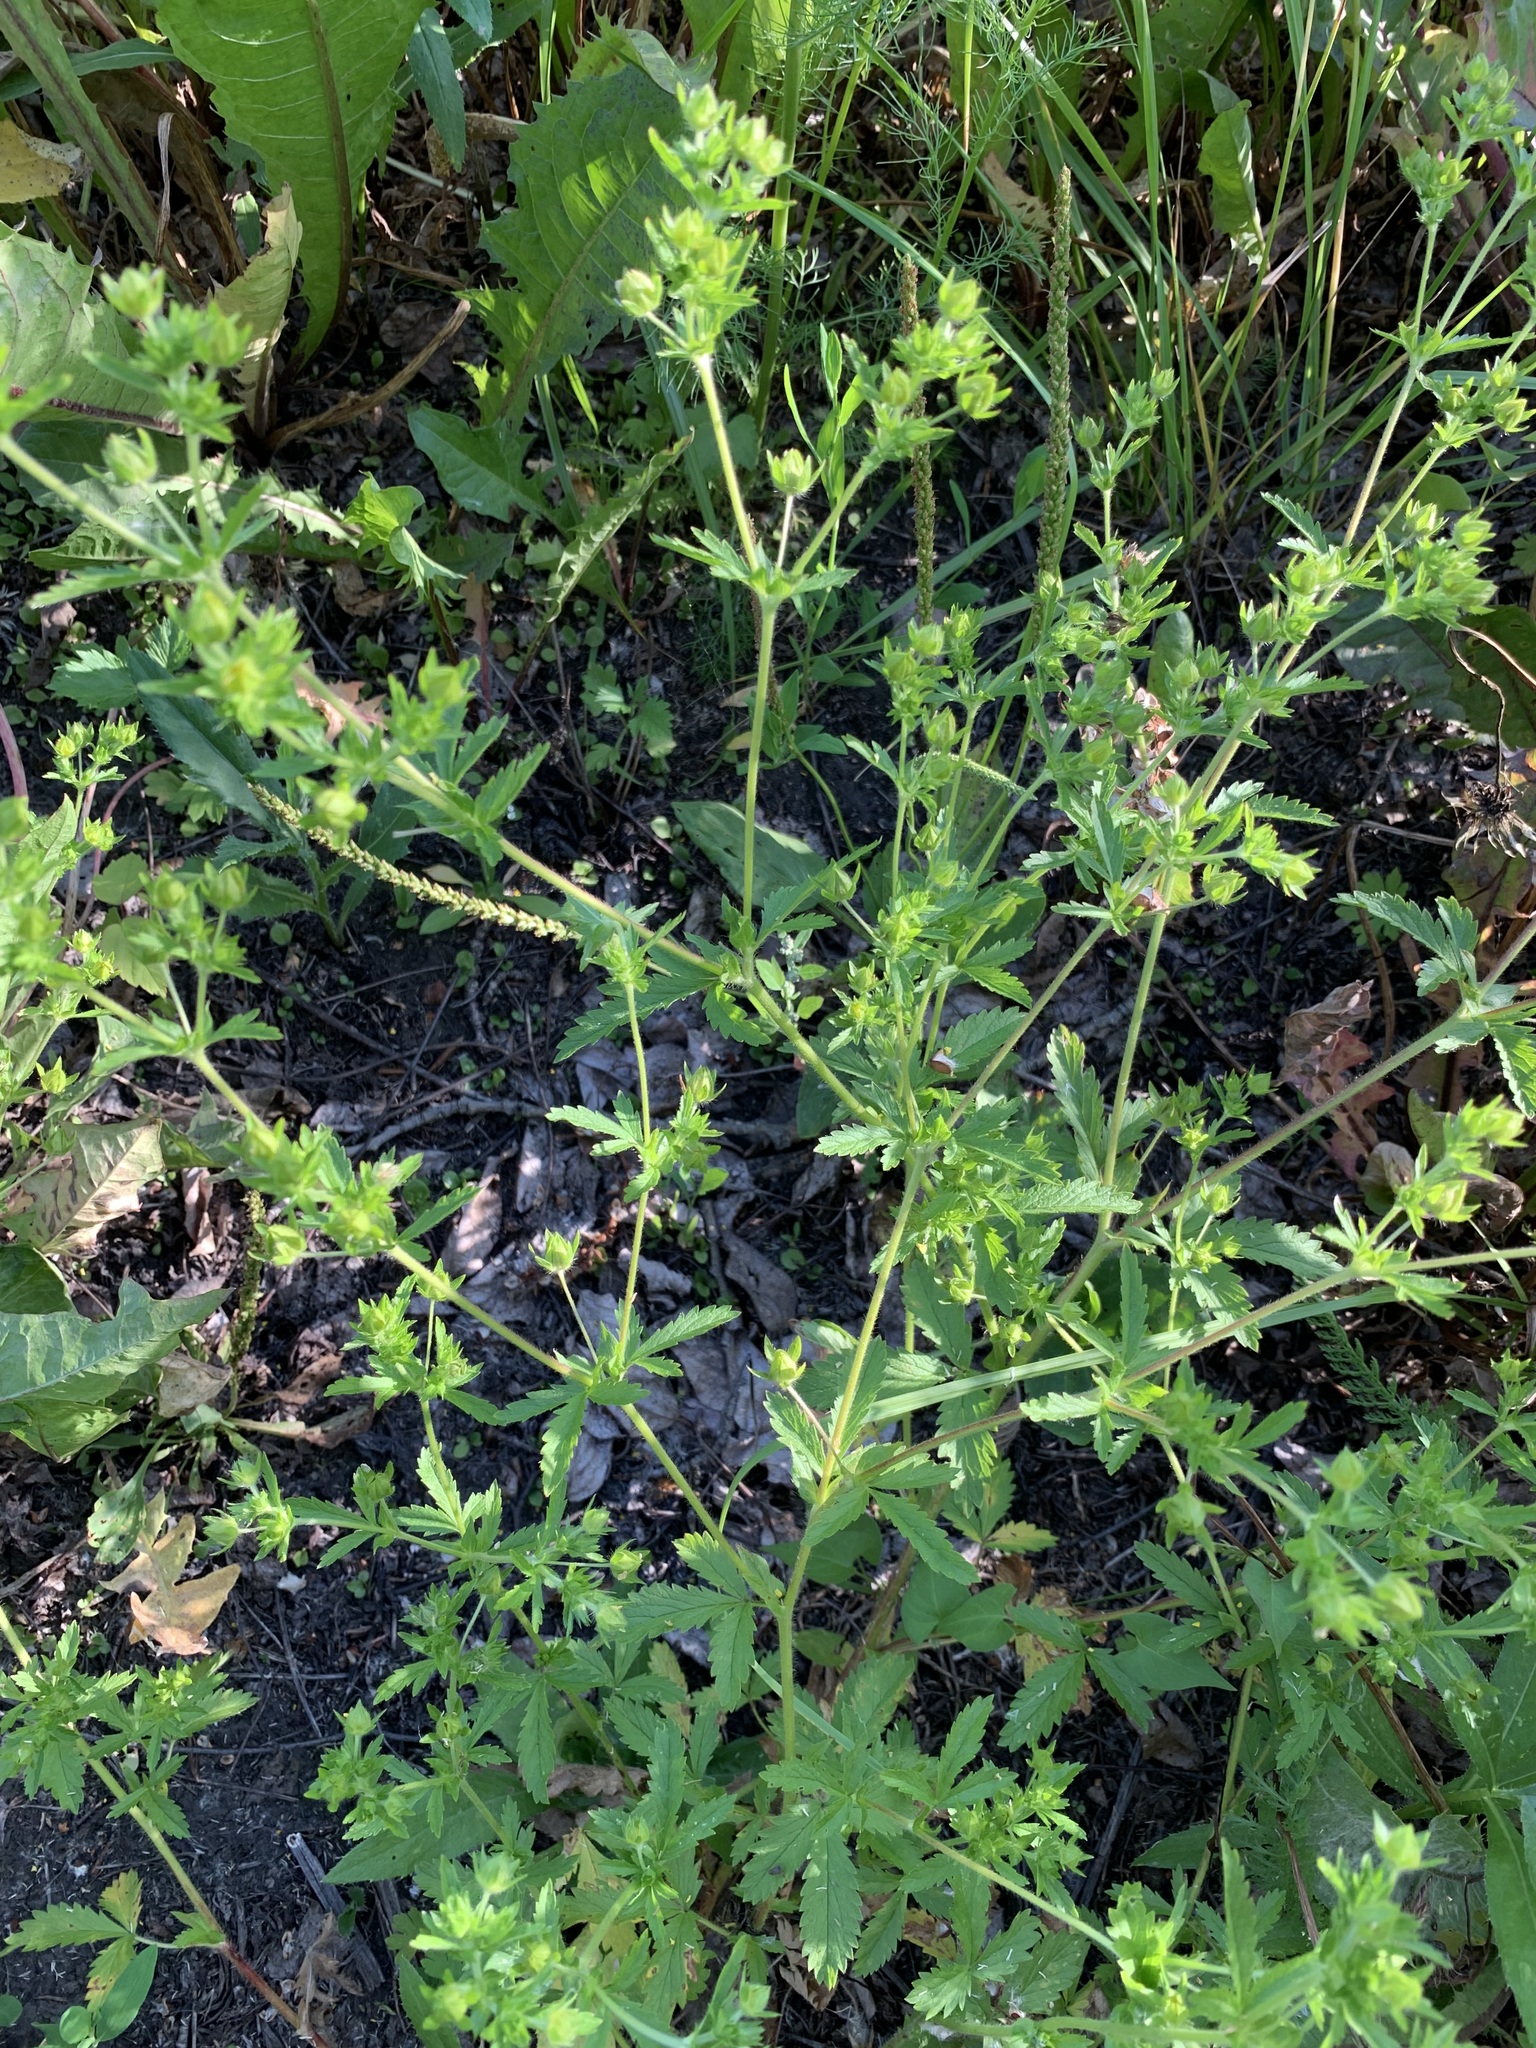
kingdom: Plantae
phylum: Tracheophyta
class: Magnoliopsida
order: Rosales
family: Rosaceae
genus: Potentilla
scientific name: Potentilla norvegica
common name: Ternate-leaved cinquefoil
